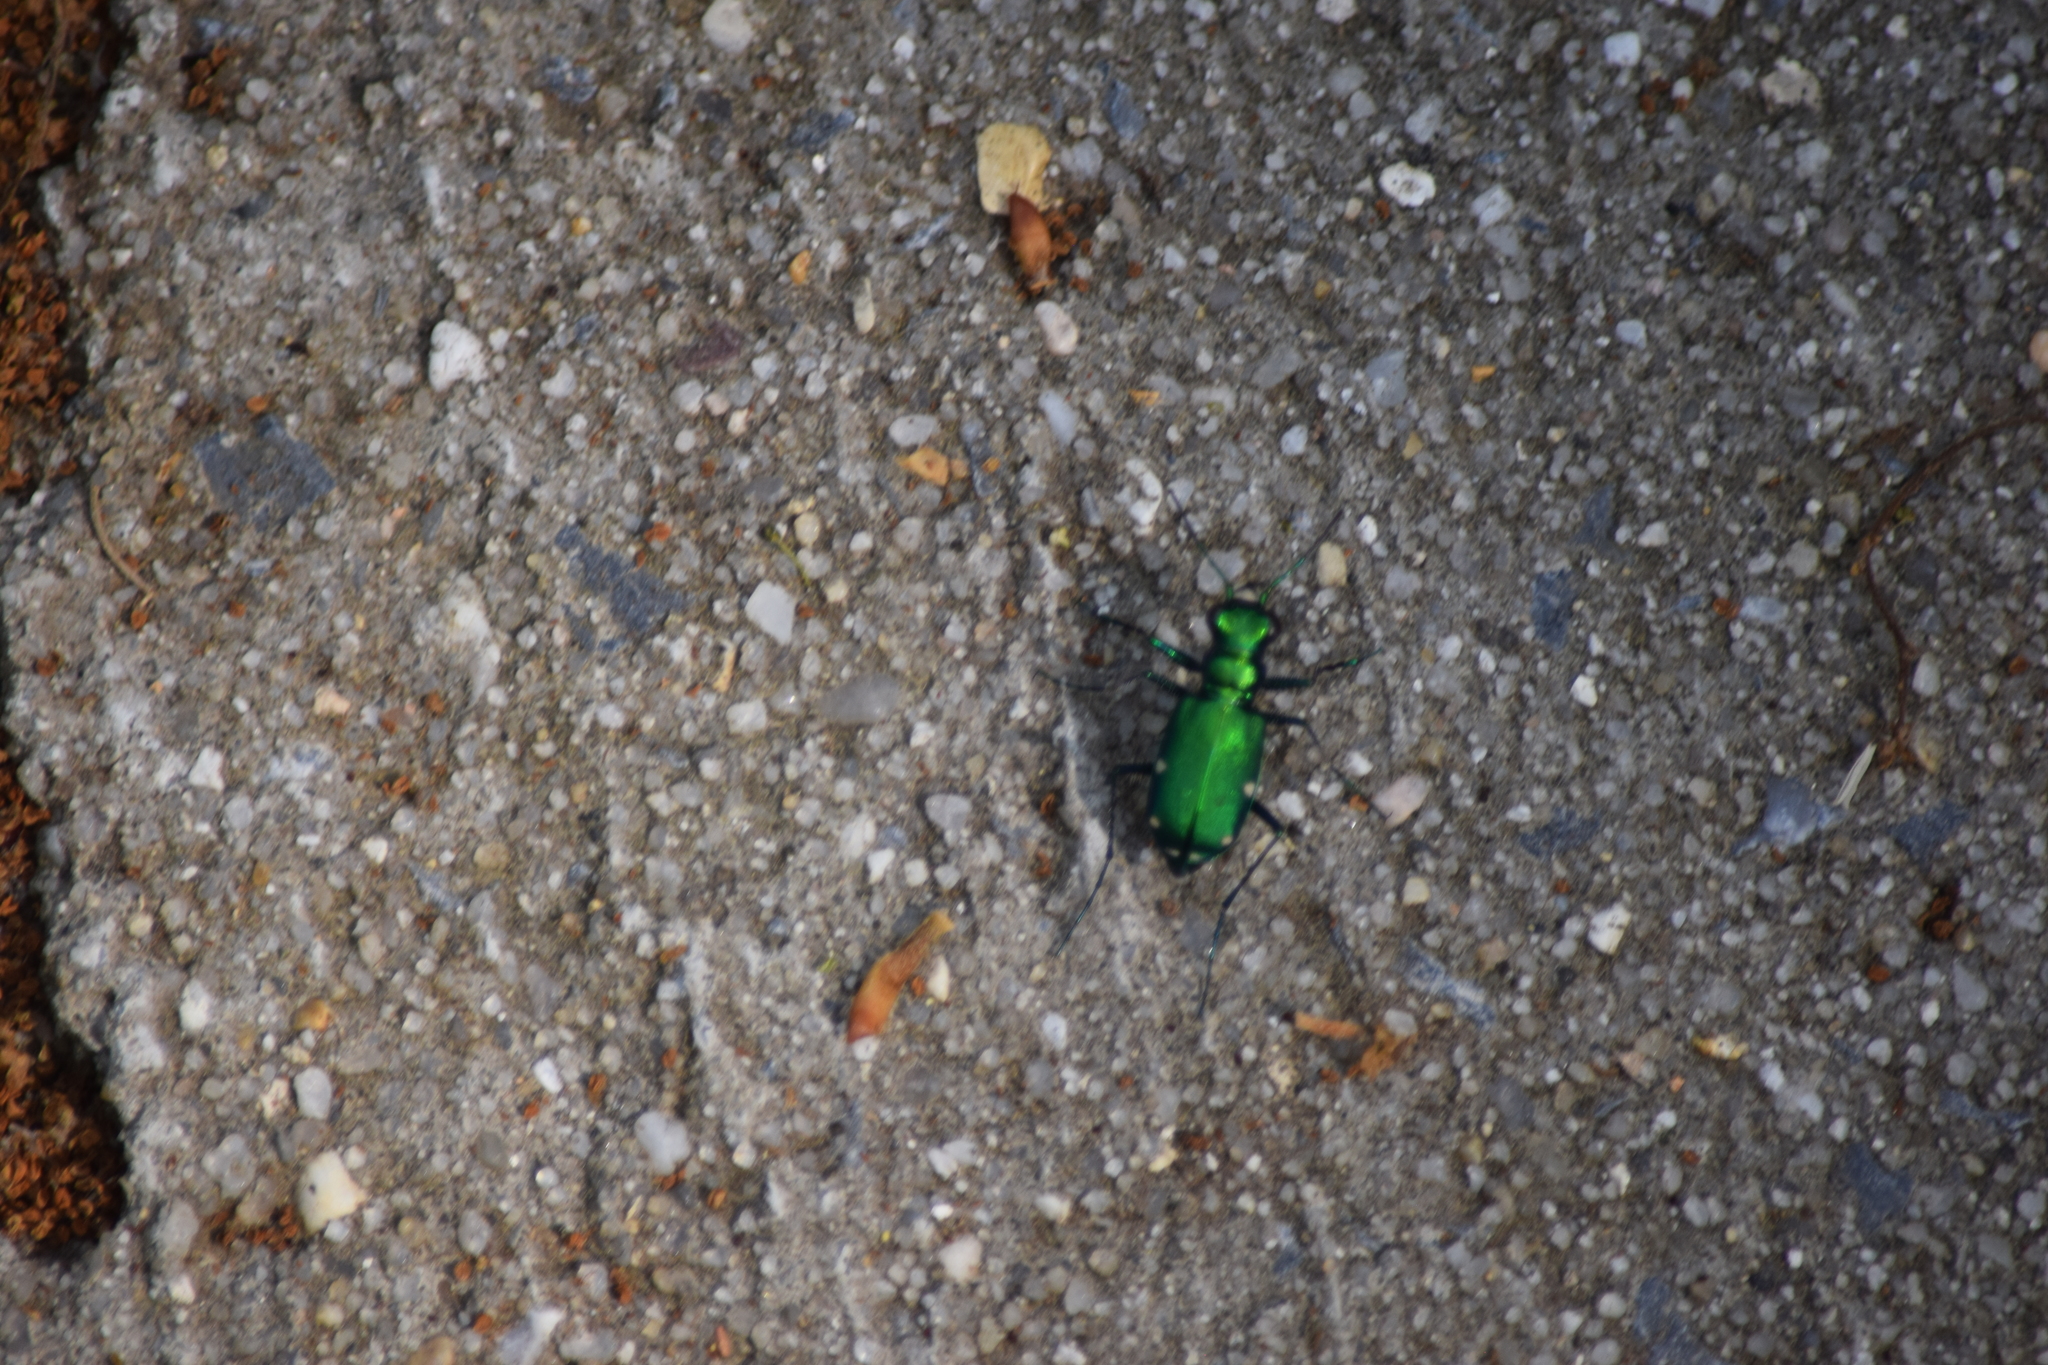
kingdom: Animalia
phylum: Arthropoda
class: Insecta
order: Coleoptera
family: Carabidae
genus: Cicindela
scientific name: Cicindela sexguttata
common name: Six-spotted tiger beetle
